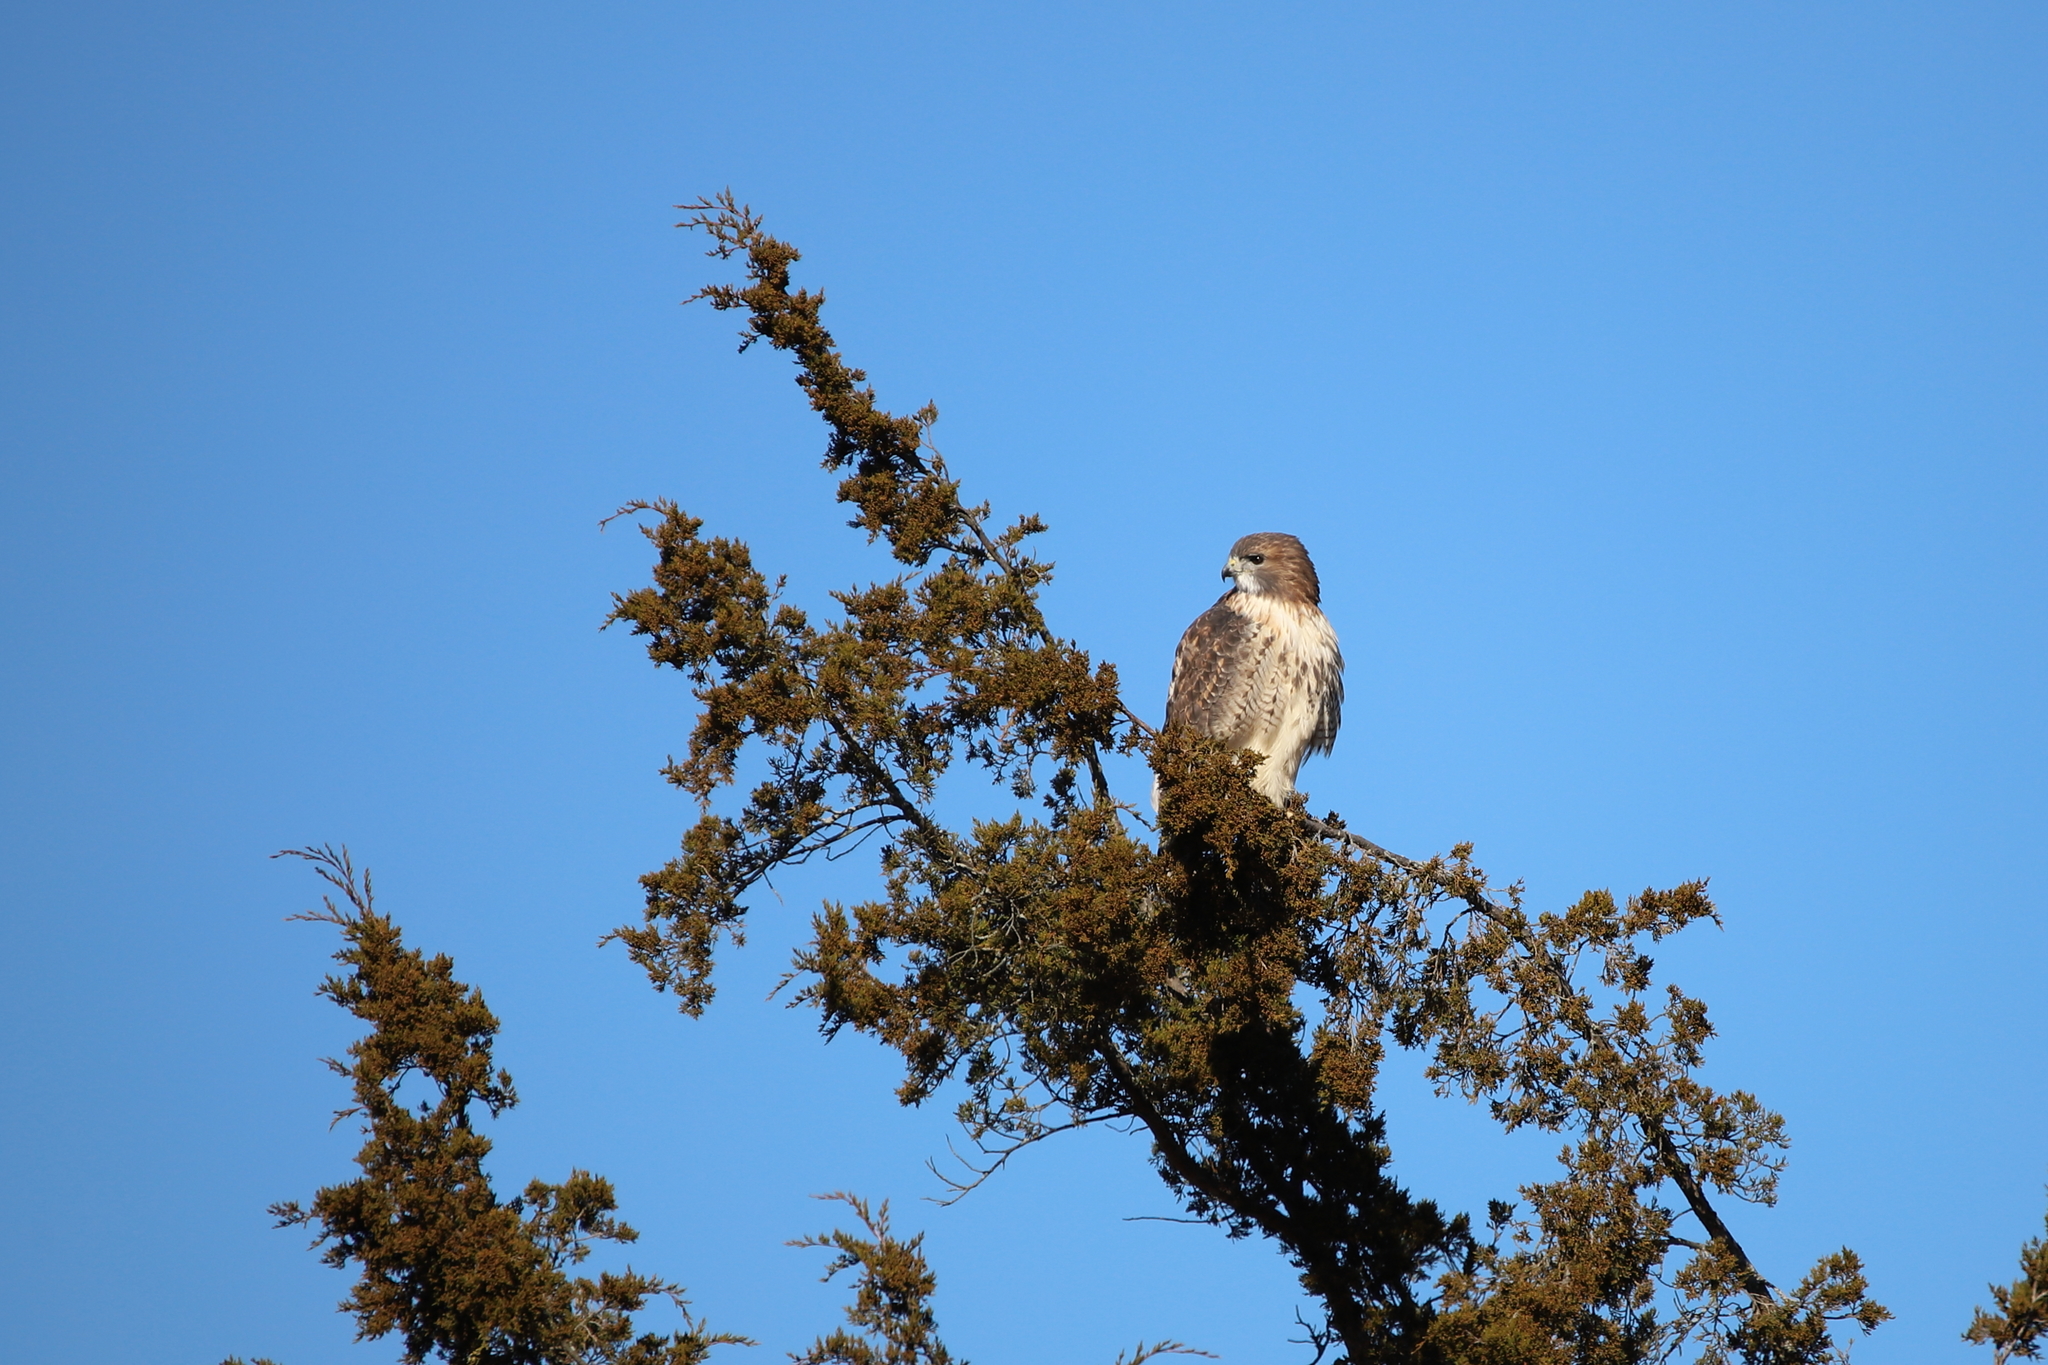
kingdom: Animalia
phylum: Chordata
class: Aves
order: Accipitriformes
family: Accipitridae
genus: Buteo
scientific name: Buteo jamaicensis
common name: Red-tailed hawk
